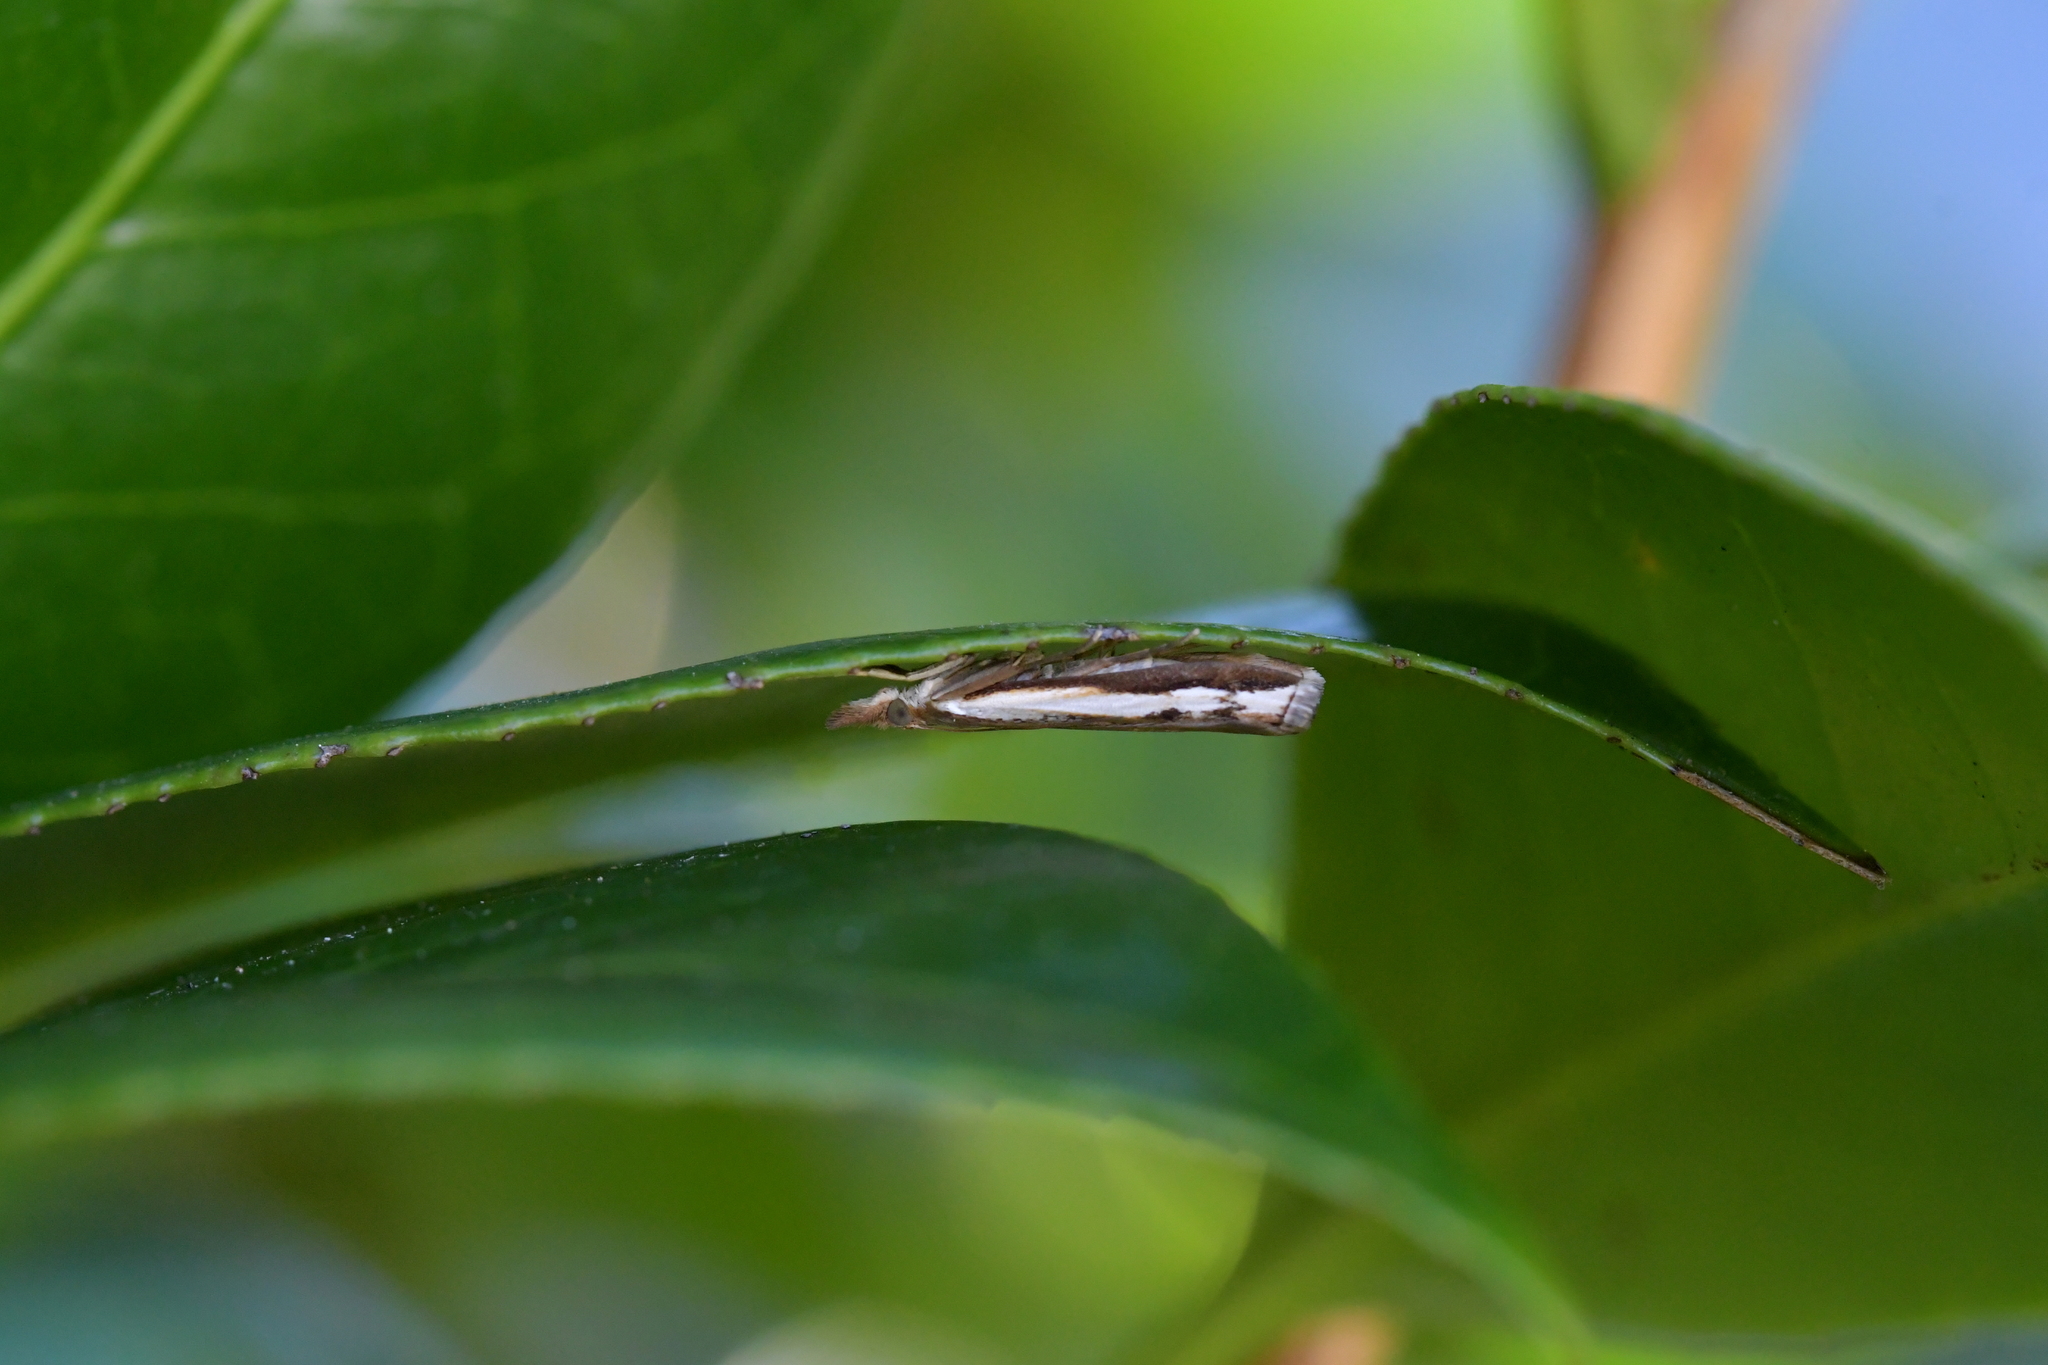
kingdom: Animalia
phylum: Arthropoda
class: Insecta
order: Lepidoptera
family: Crambidae
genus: Orocrambus
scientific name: Orocrambus flexuosellus
